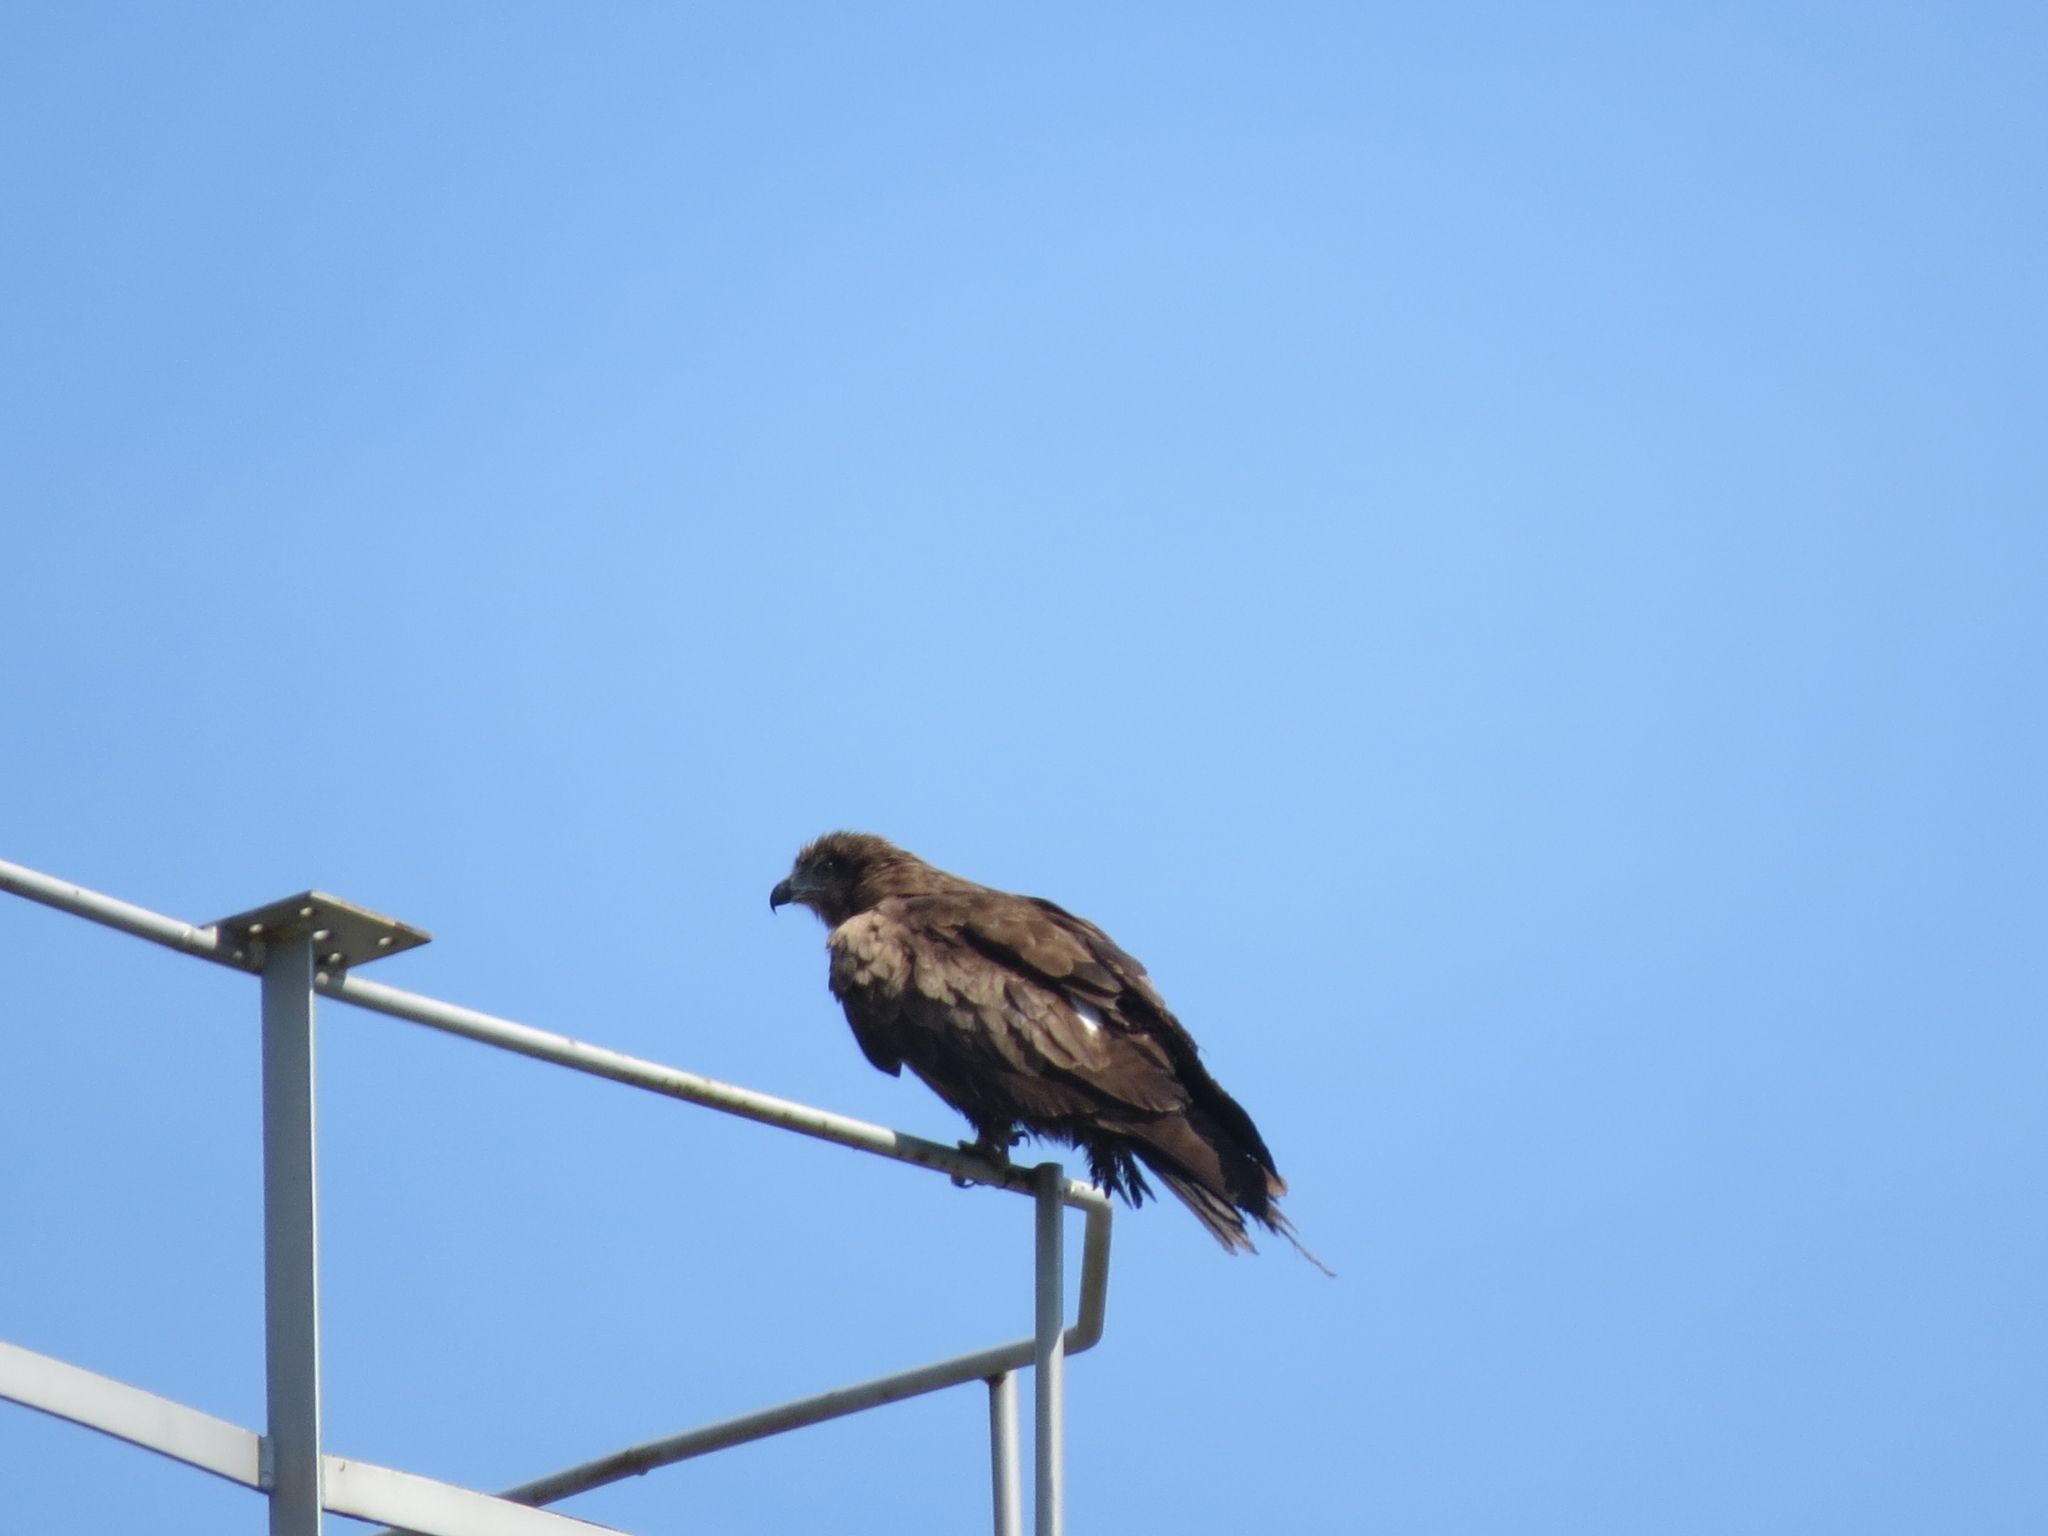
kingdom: Animalia
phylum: Chordata
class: Aves
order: Accipitriformes
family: Accipitridae
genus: Milvus
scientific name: Milvus migrans
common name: Black kite
